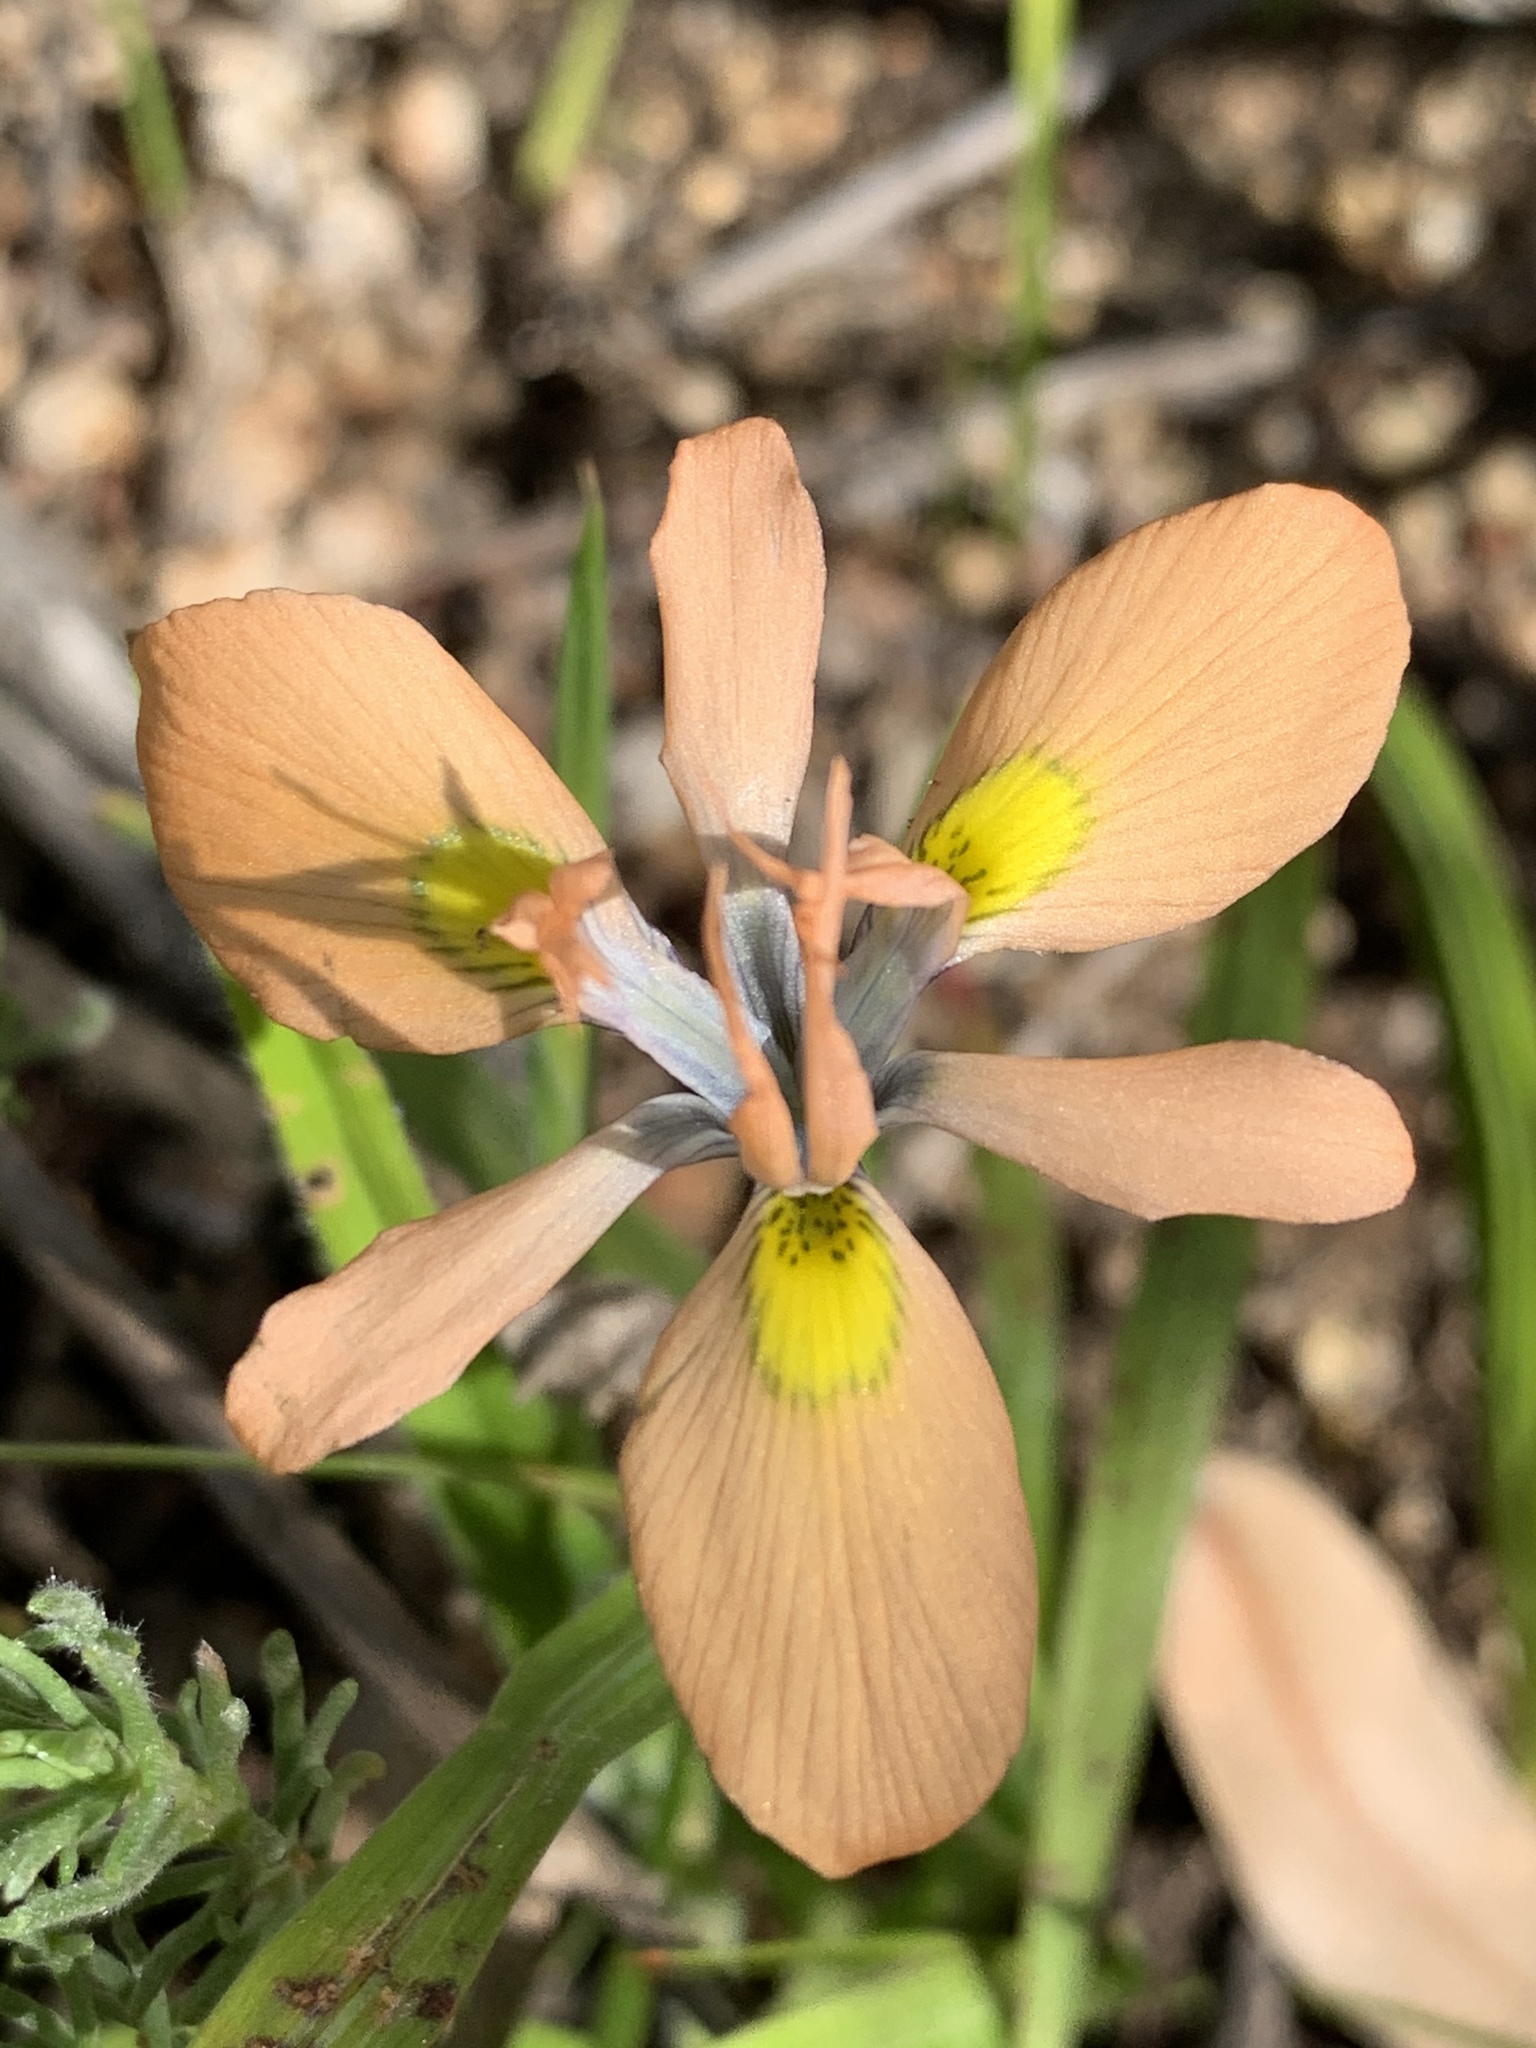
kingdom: Plantae
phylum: Tracheophyta
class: Liliopsida
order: Asparagales
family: Iridaceae
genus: Moraea
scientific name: Moraea papilionacea
